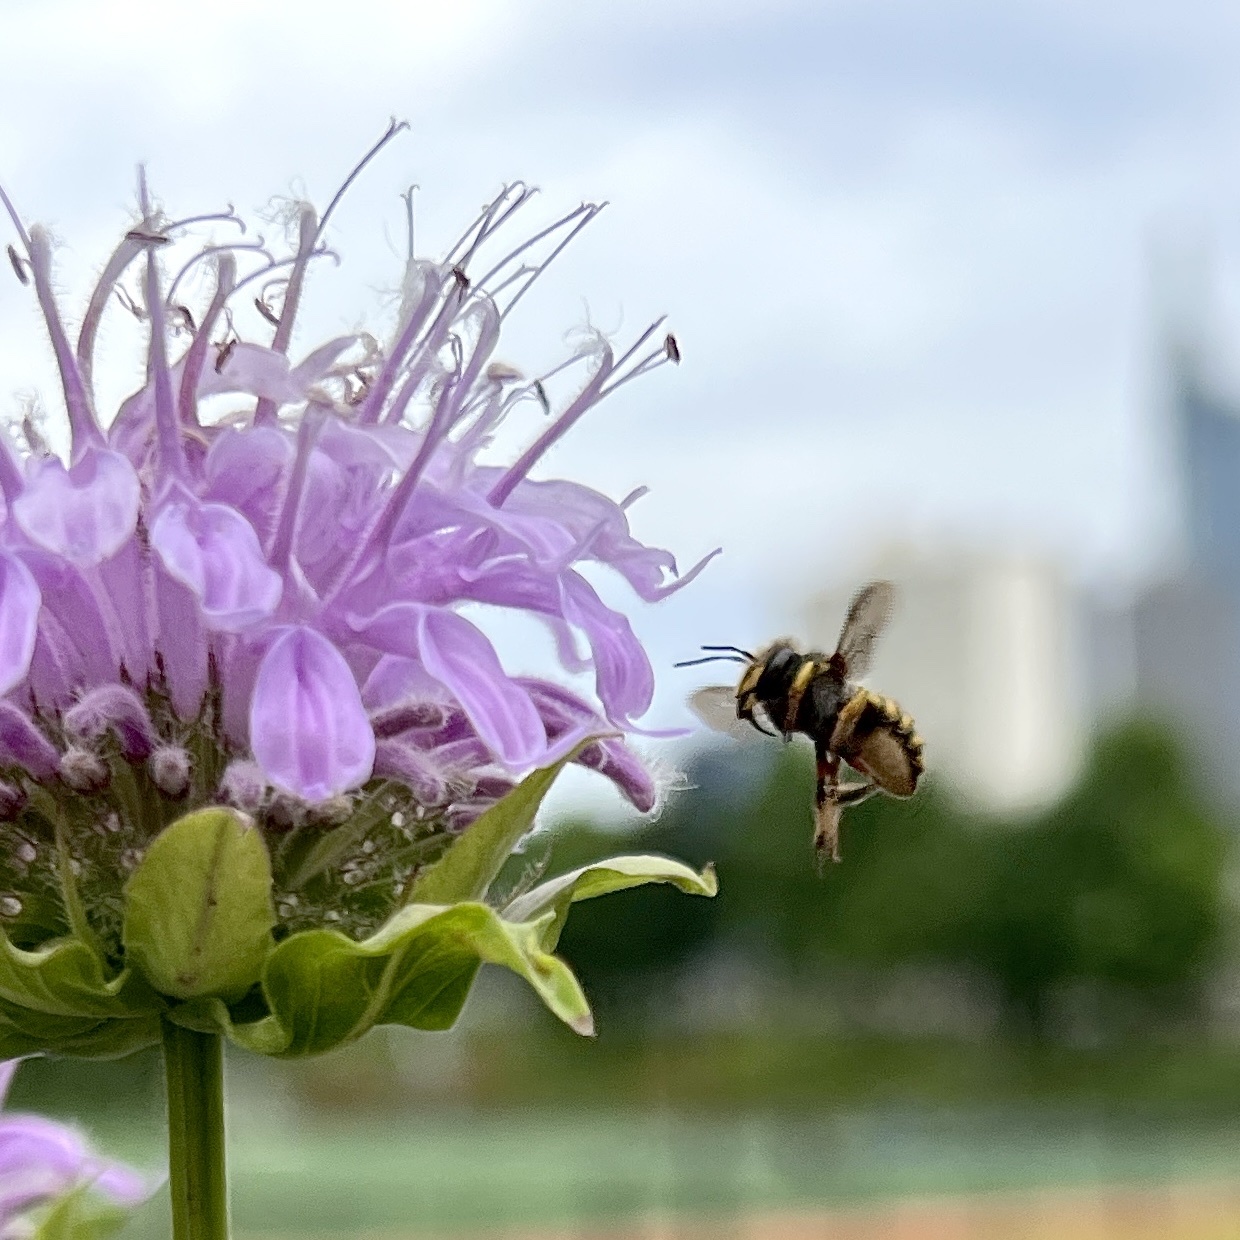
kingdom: Animalia
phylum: Arthropoda
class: Insecta
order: Hymenoptera
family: Megachilidae
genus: Anthidium
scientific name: Anthidium manicatum
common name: Wool carder bee
